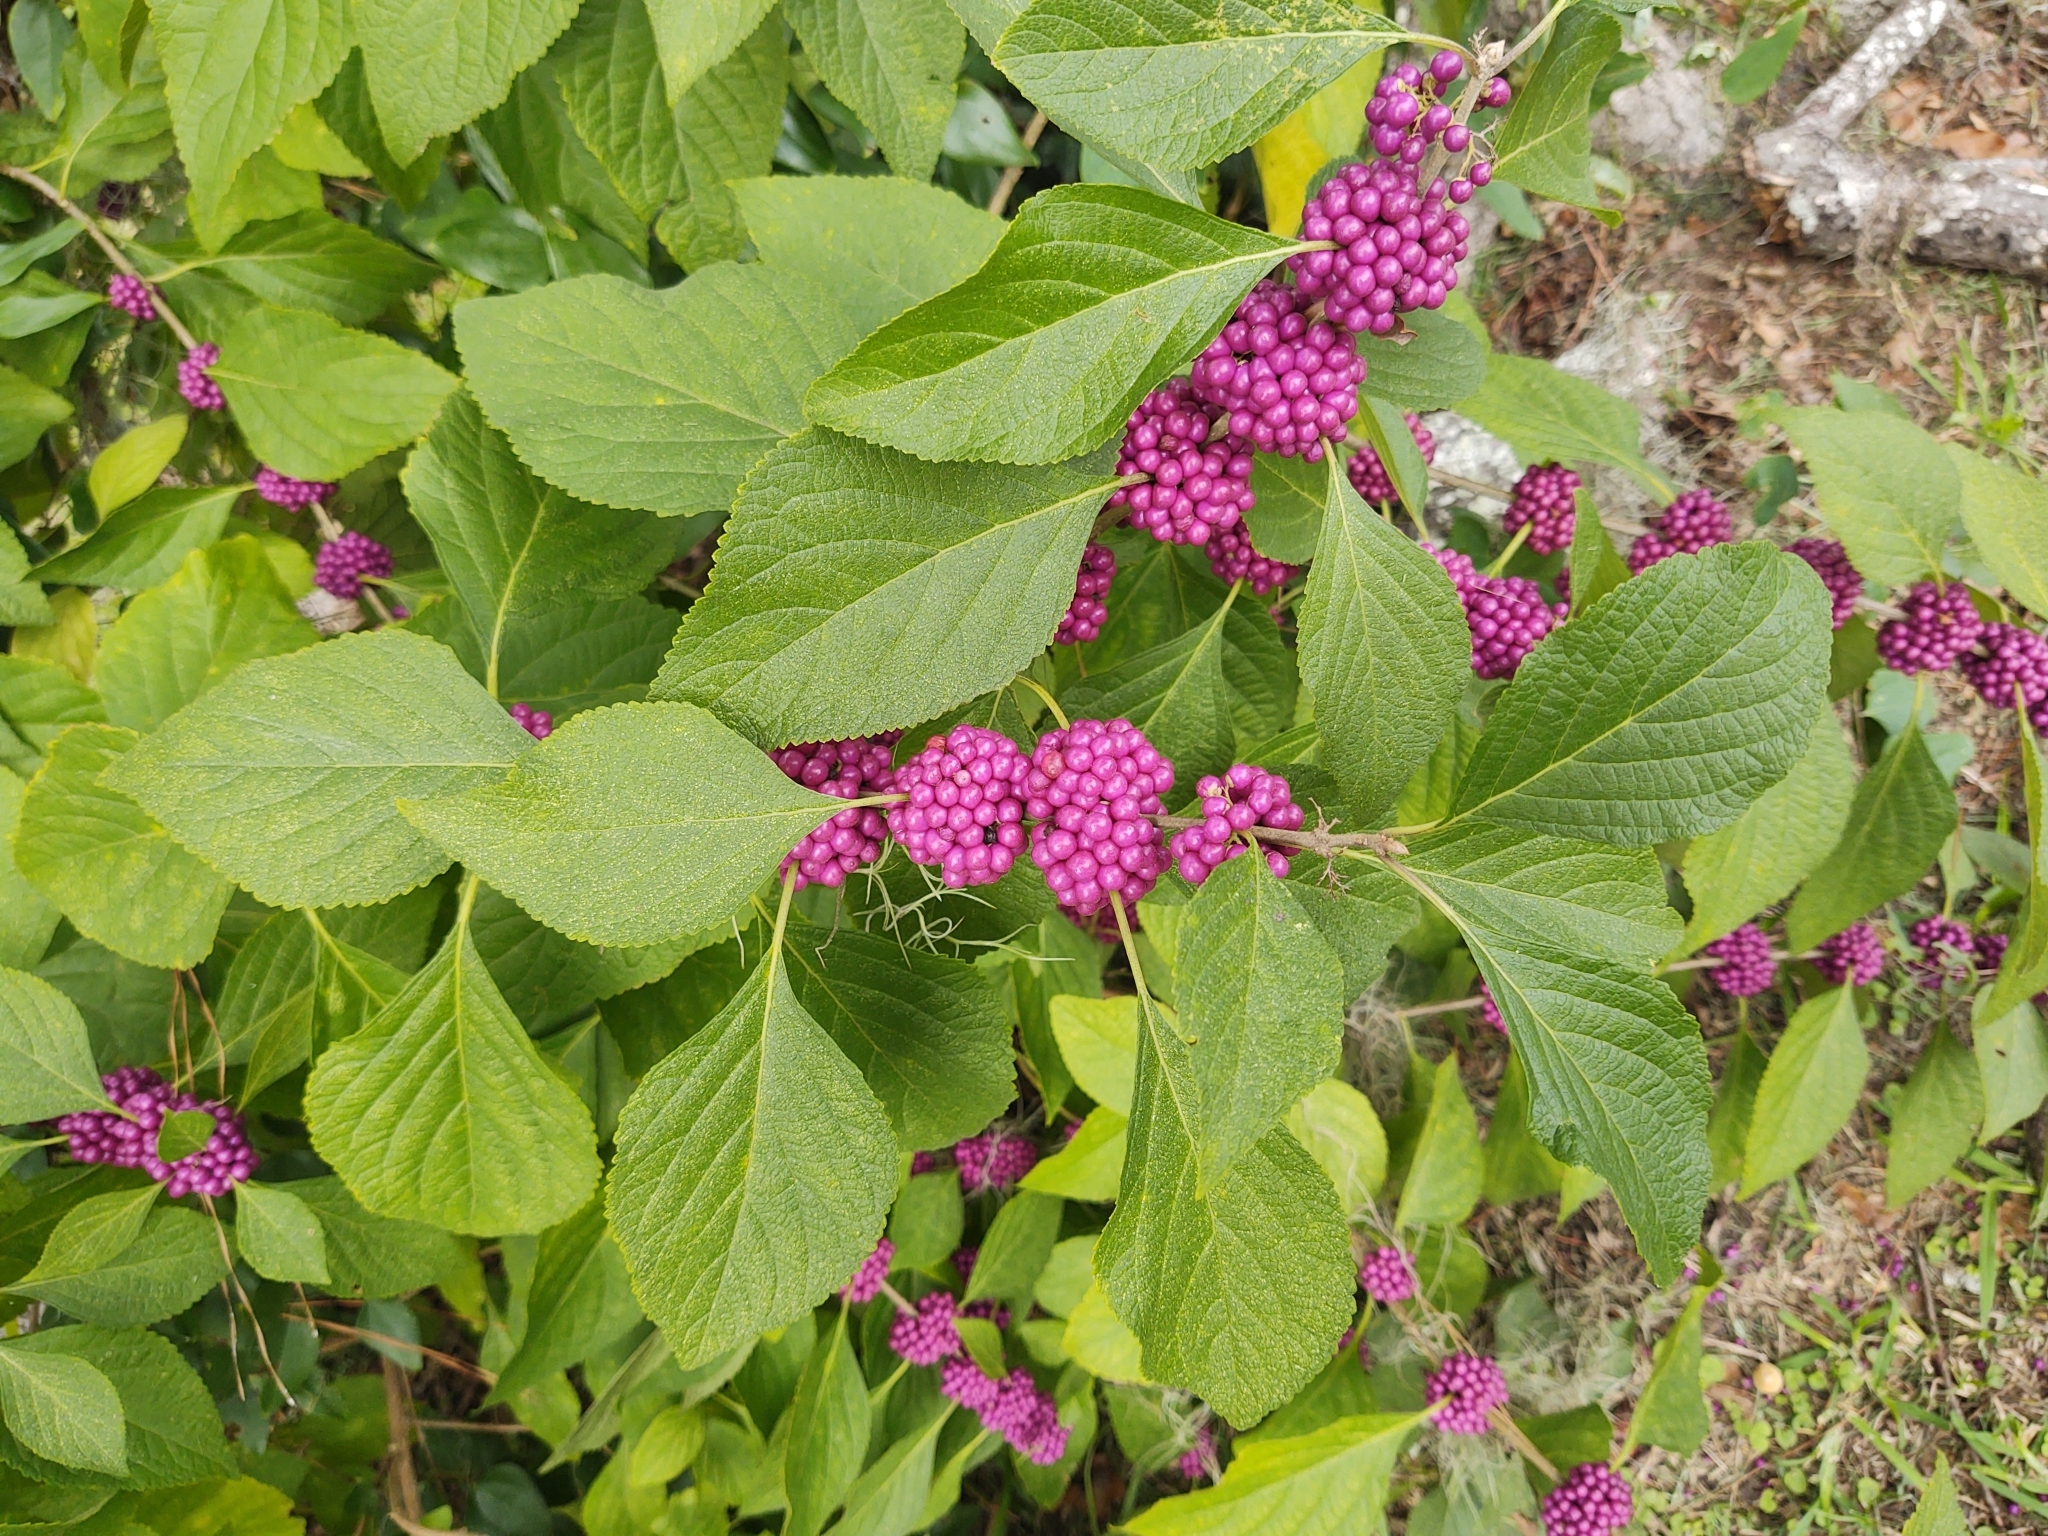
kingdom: Plantae
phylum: Tracheophyta
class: Magnoliopsida
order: Lamiales
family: Lamiaceae
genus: Callicarpa
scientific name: Callicarpa americana
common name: American beautyberry
